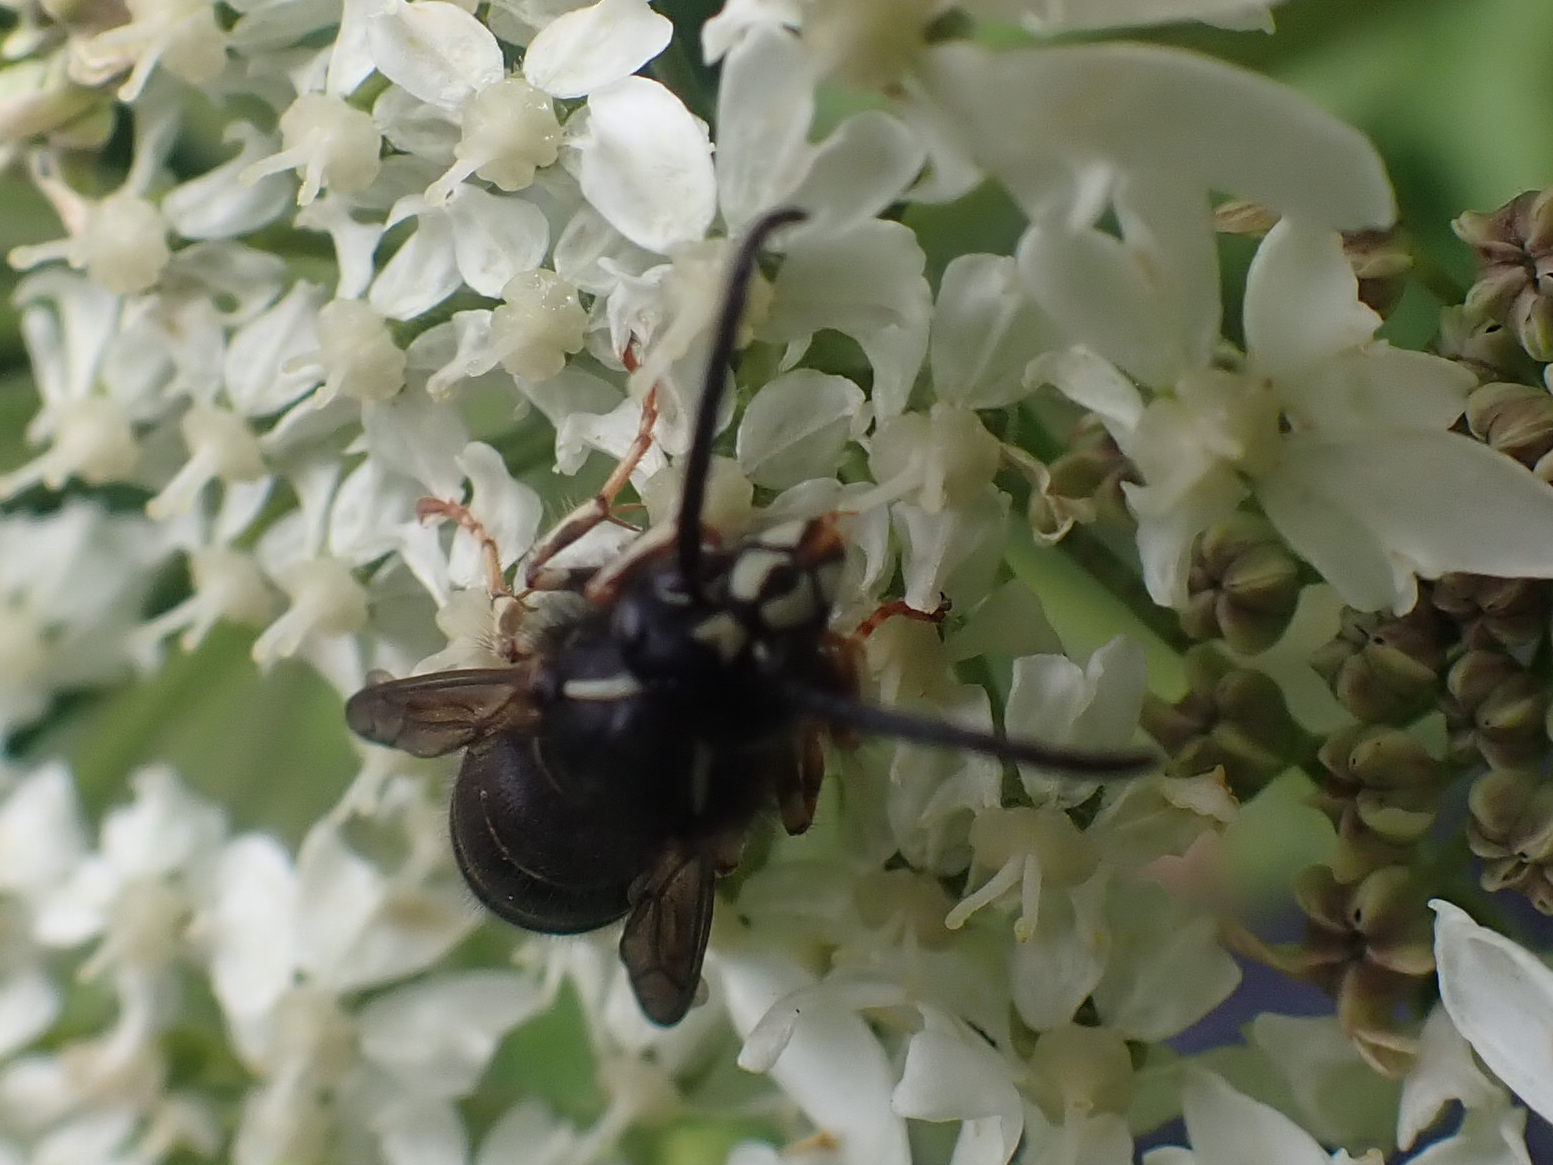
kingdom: Animalia
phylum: Arthropoda
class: Insecta
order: Hymenoptera
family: Vespidae
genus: Dolichovespula
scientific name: Dolichovespula adulterina
